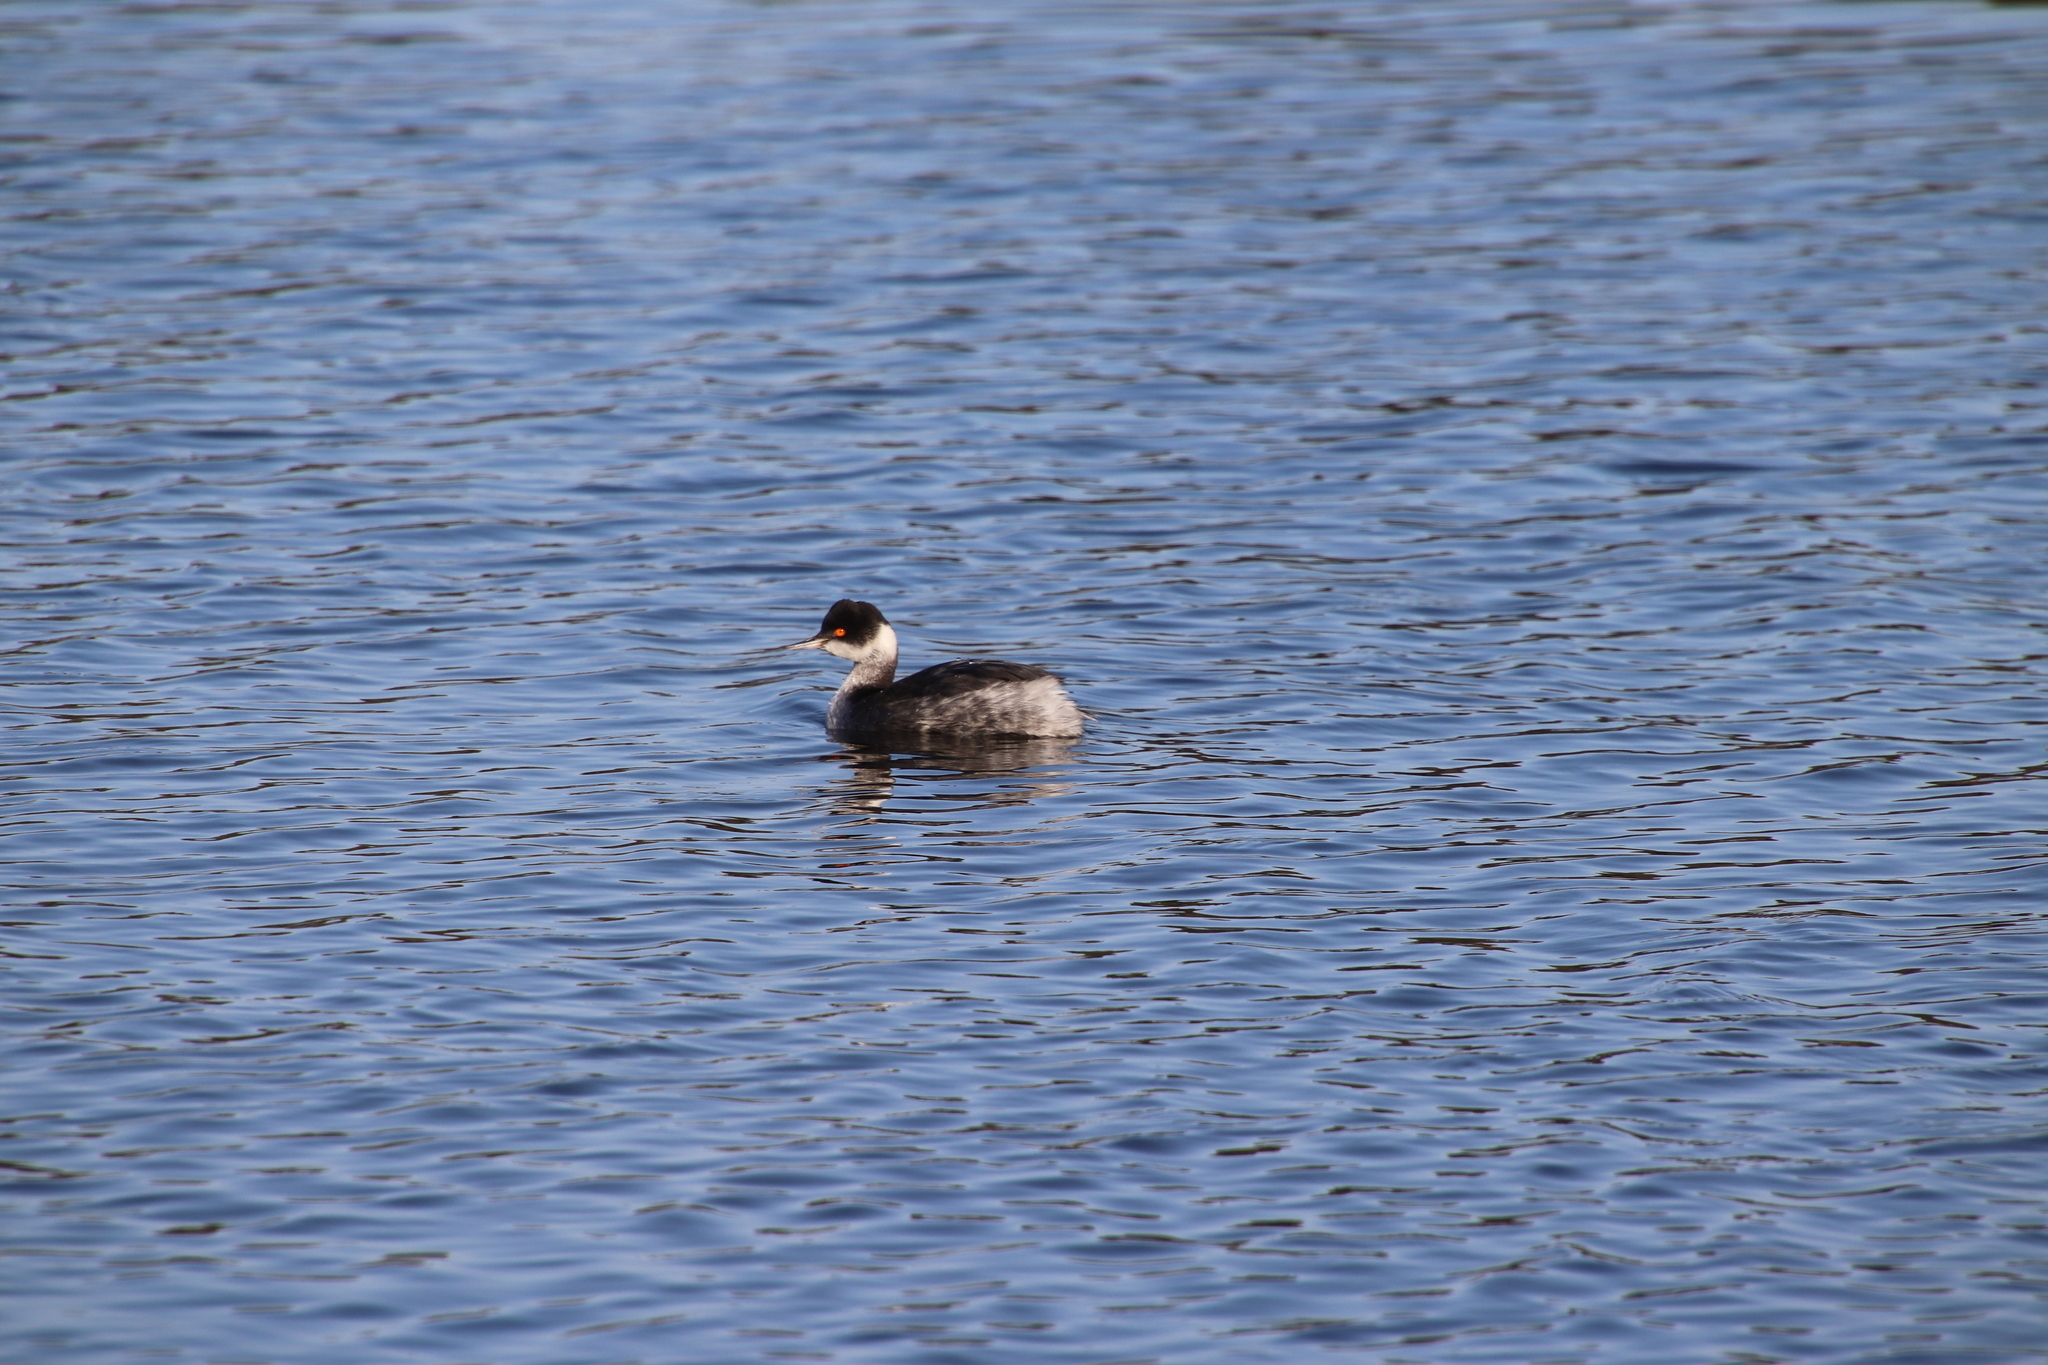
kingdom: Animalia
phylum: Chordata
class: Aves
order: Podicipediformes
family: Podicipedidae
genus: Podiceps
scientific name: Podiceps nigricollis
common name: Black-necked grebe
